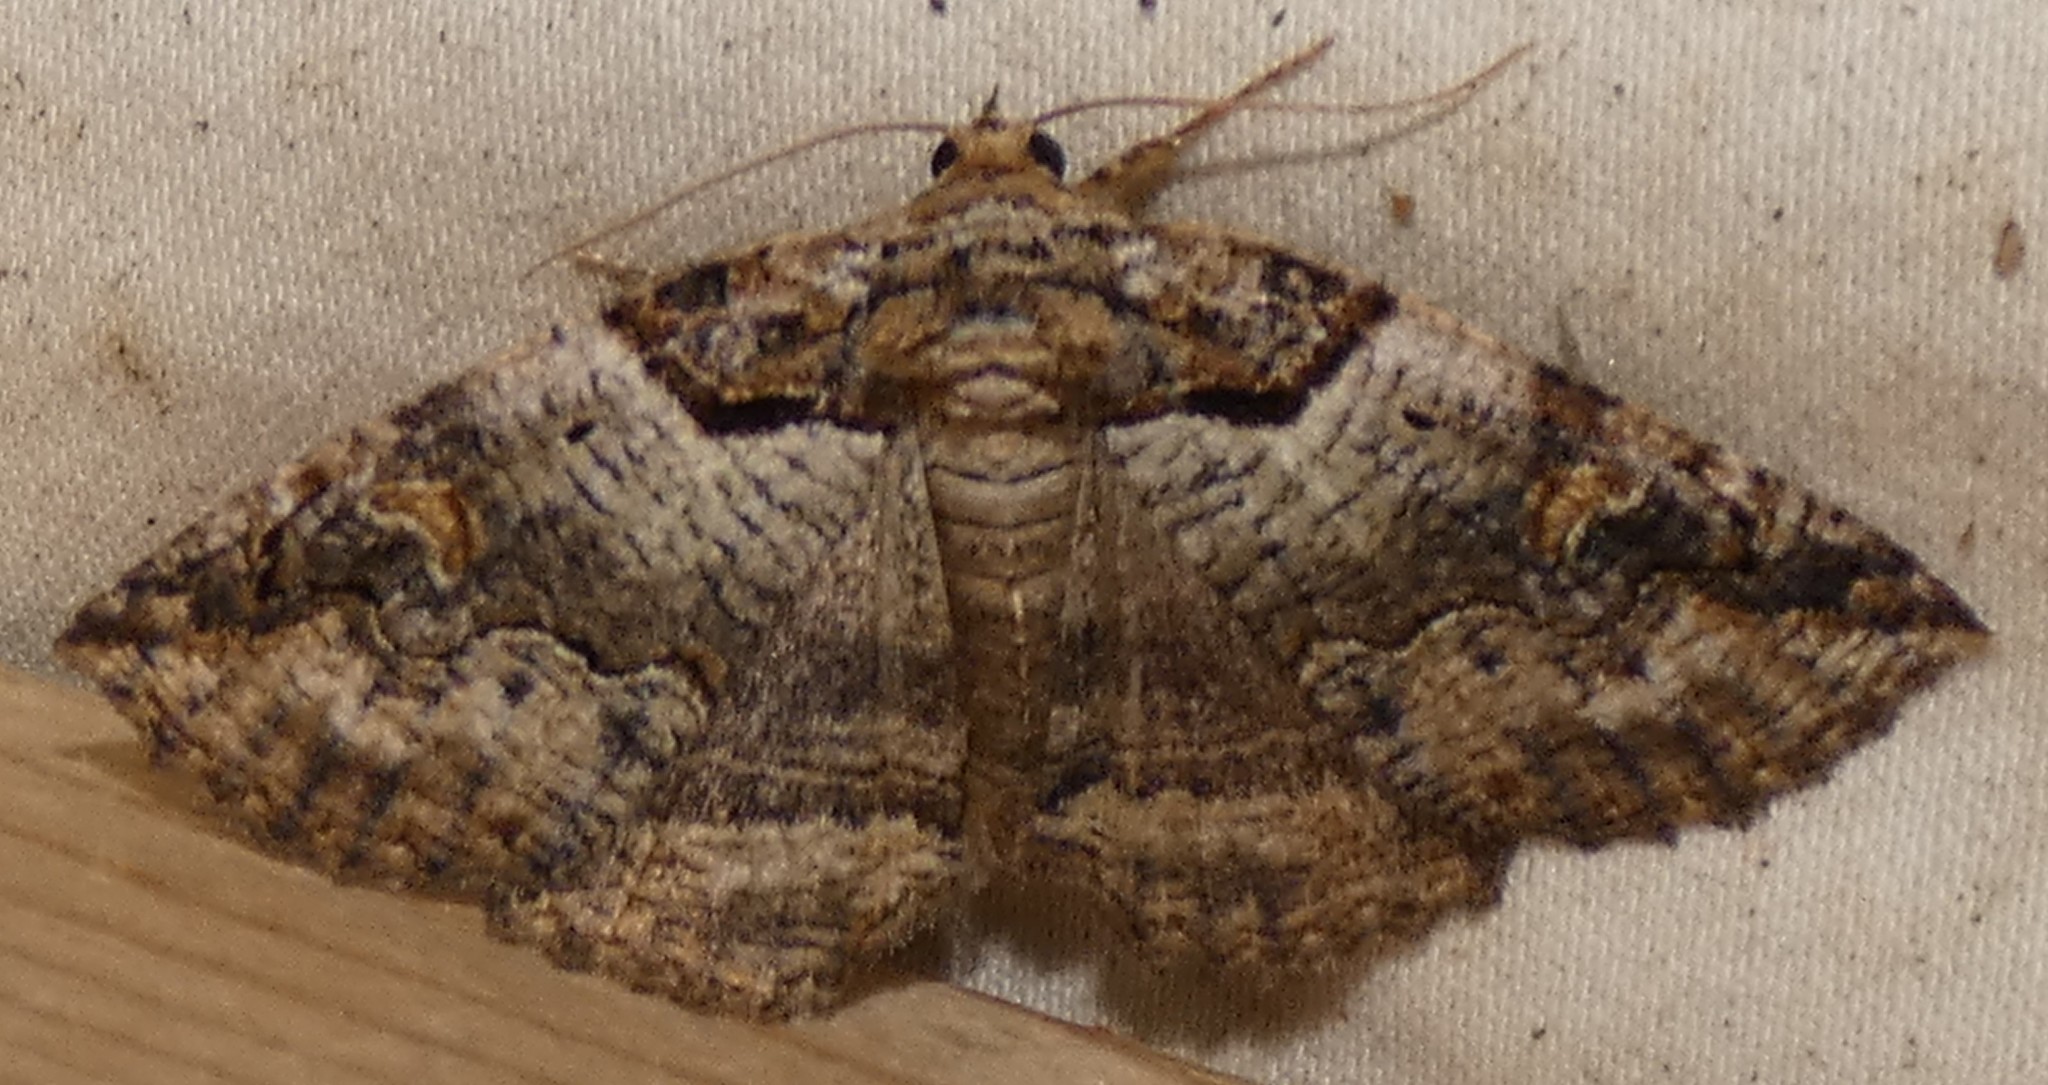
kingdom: Animalia
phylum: Arthropoda
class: Insecta
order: Lepidoptera
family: Erebidae
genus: Zale
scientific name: Zale intenta
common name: Intent zale moth
